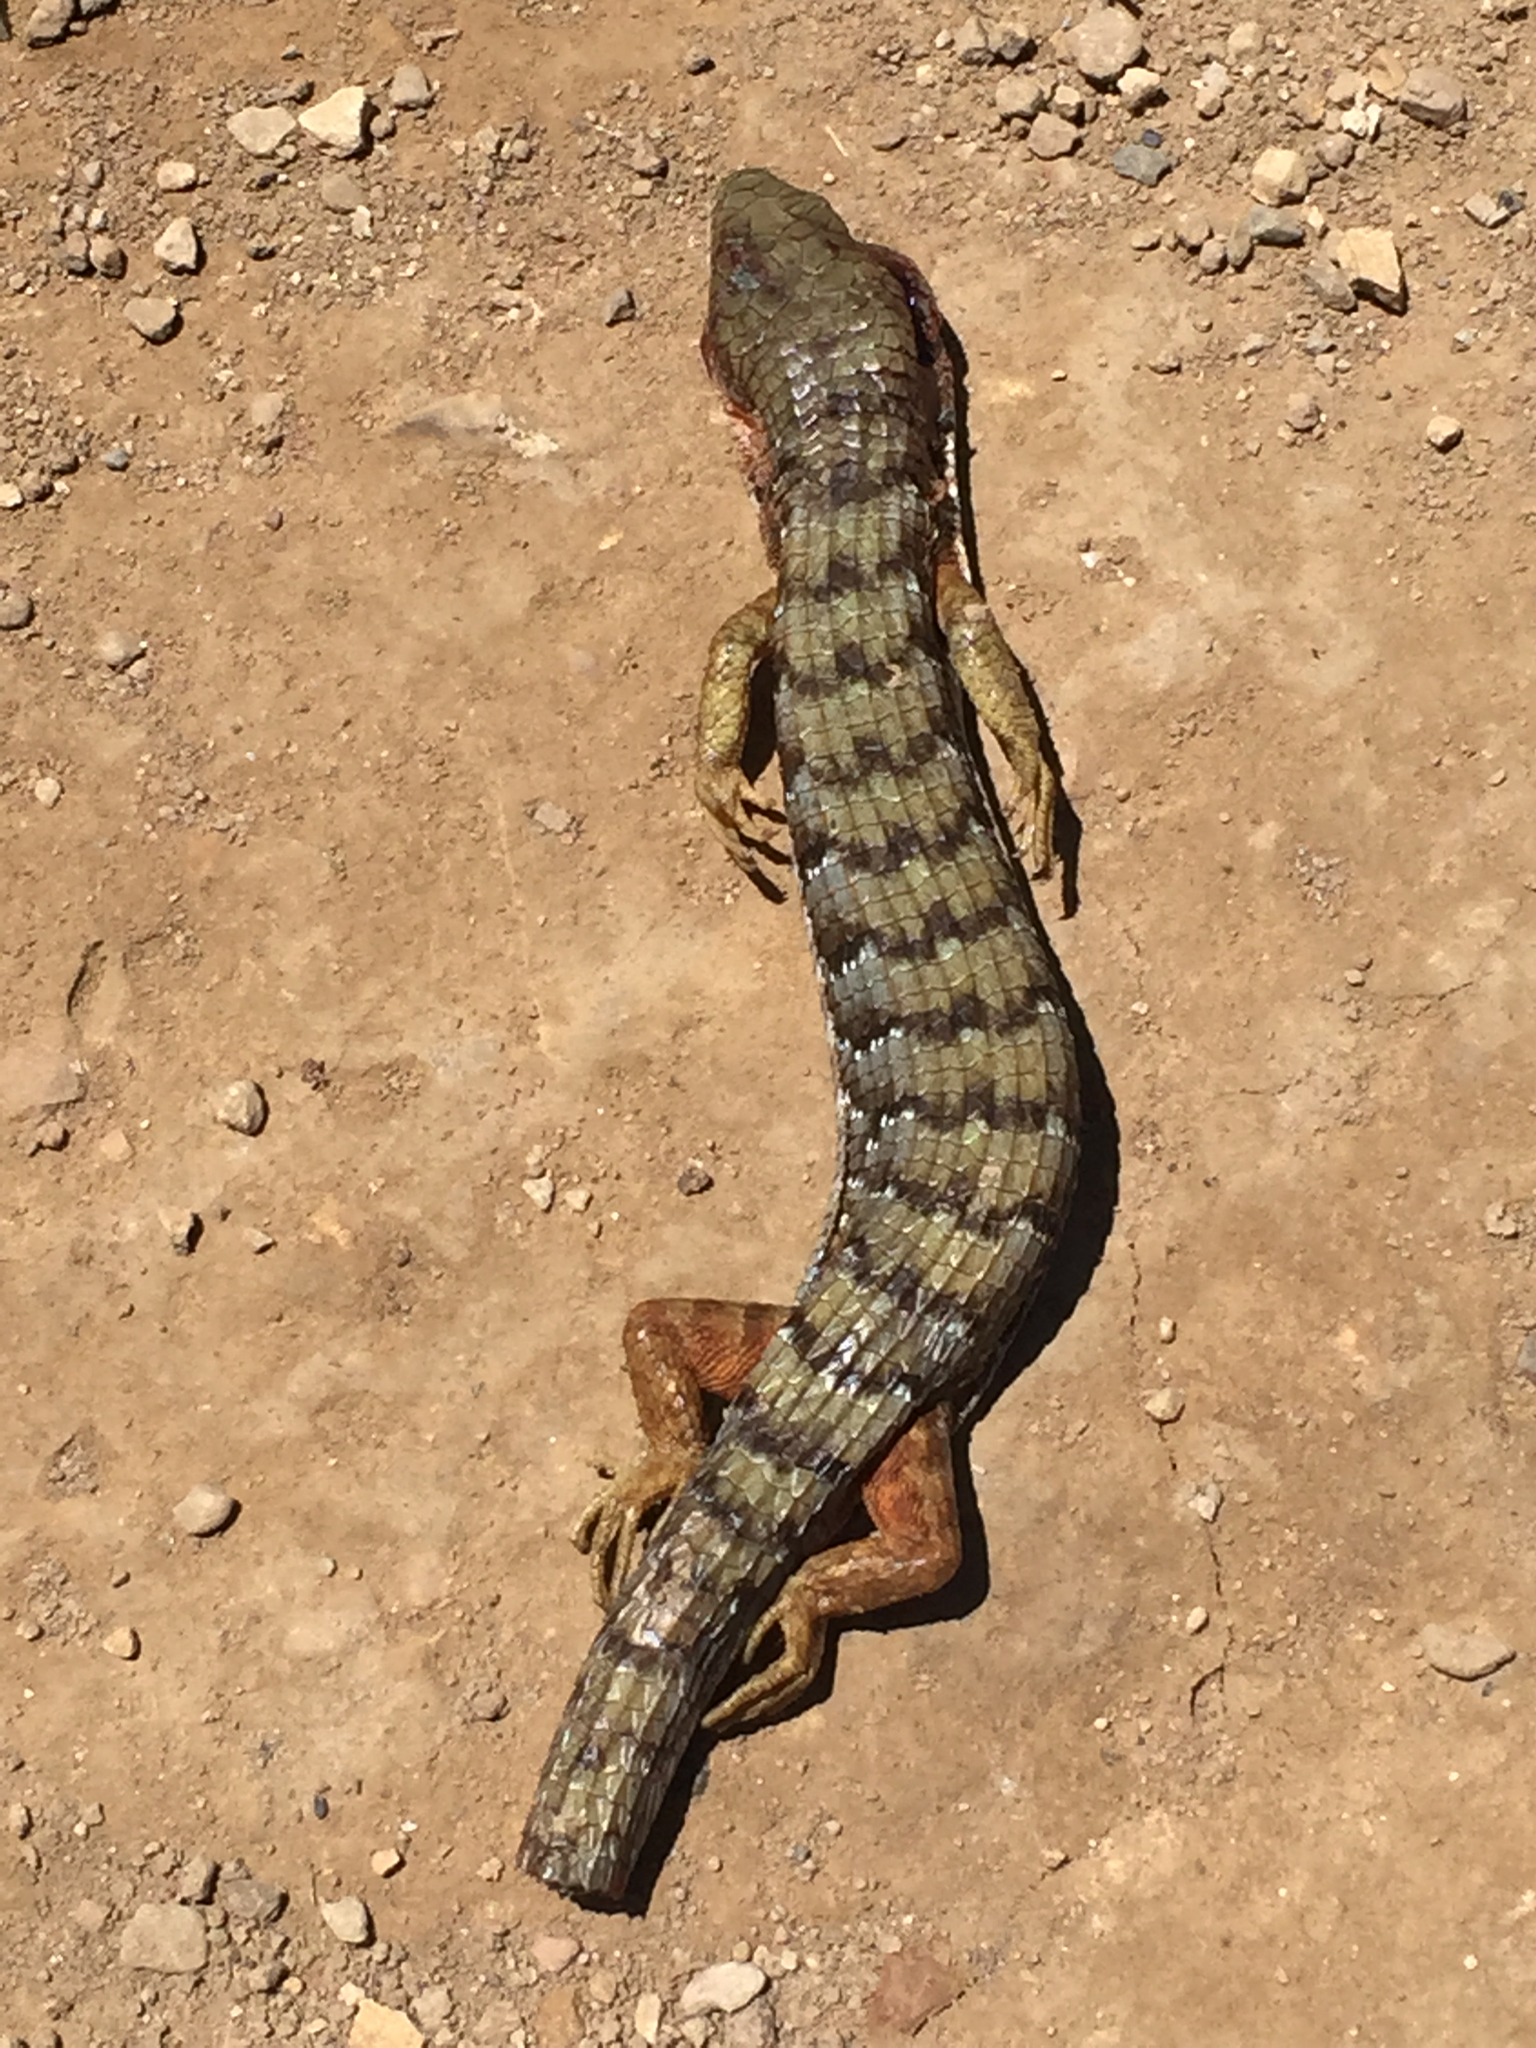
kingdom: Animalia
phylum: Chordata
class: Squamata
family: Anguidae
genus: Elgaria
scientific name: Elgaria multicarinata
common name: Southern alligator lizard
